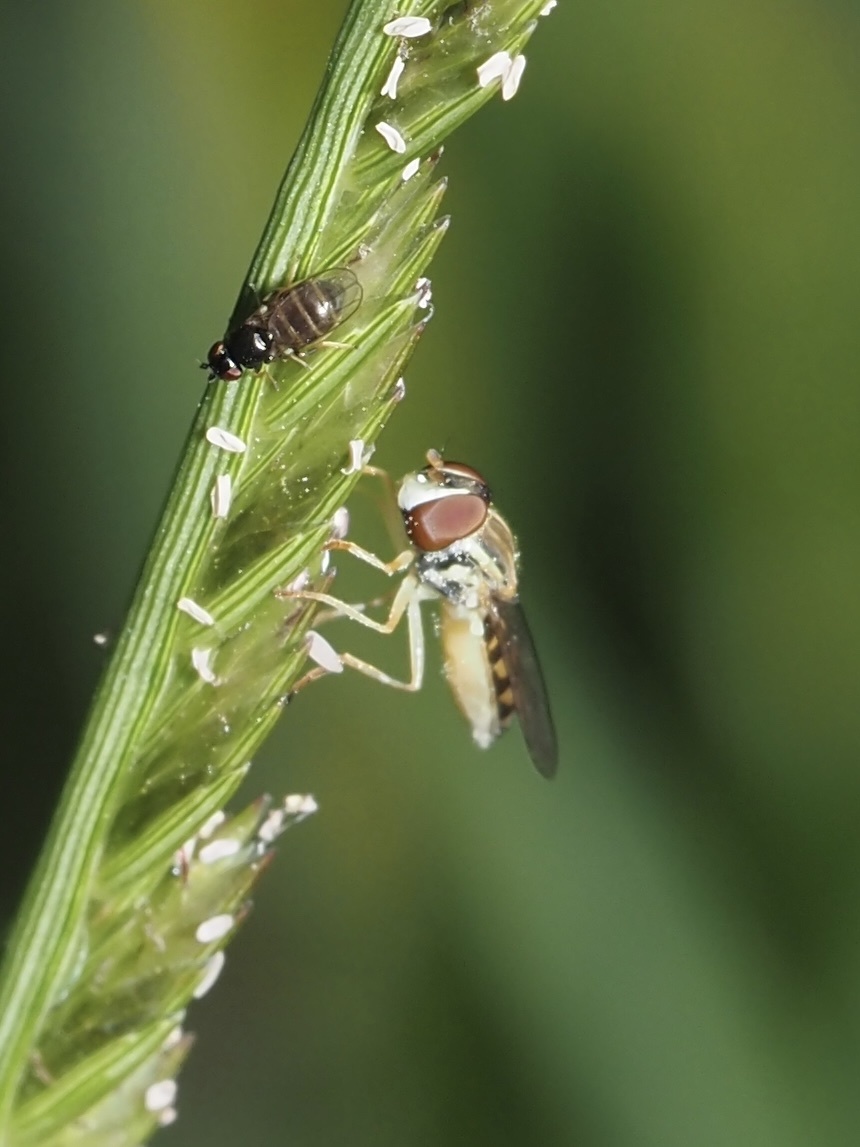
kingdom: Animalia
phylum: Arthropoda
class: Insecta
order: Diptera
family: Syrphidae
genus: Toxomerus
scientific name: Toxomerus marginatus
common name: Syrphid fly
